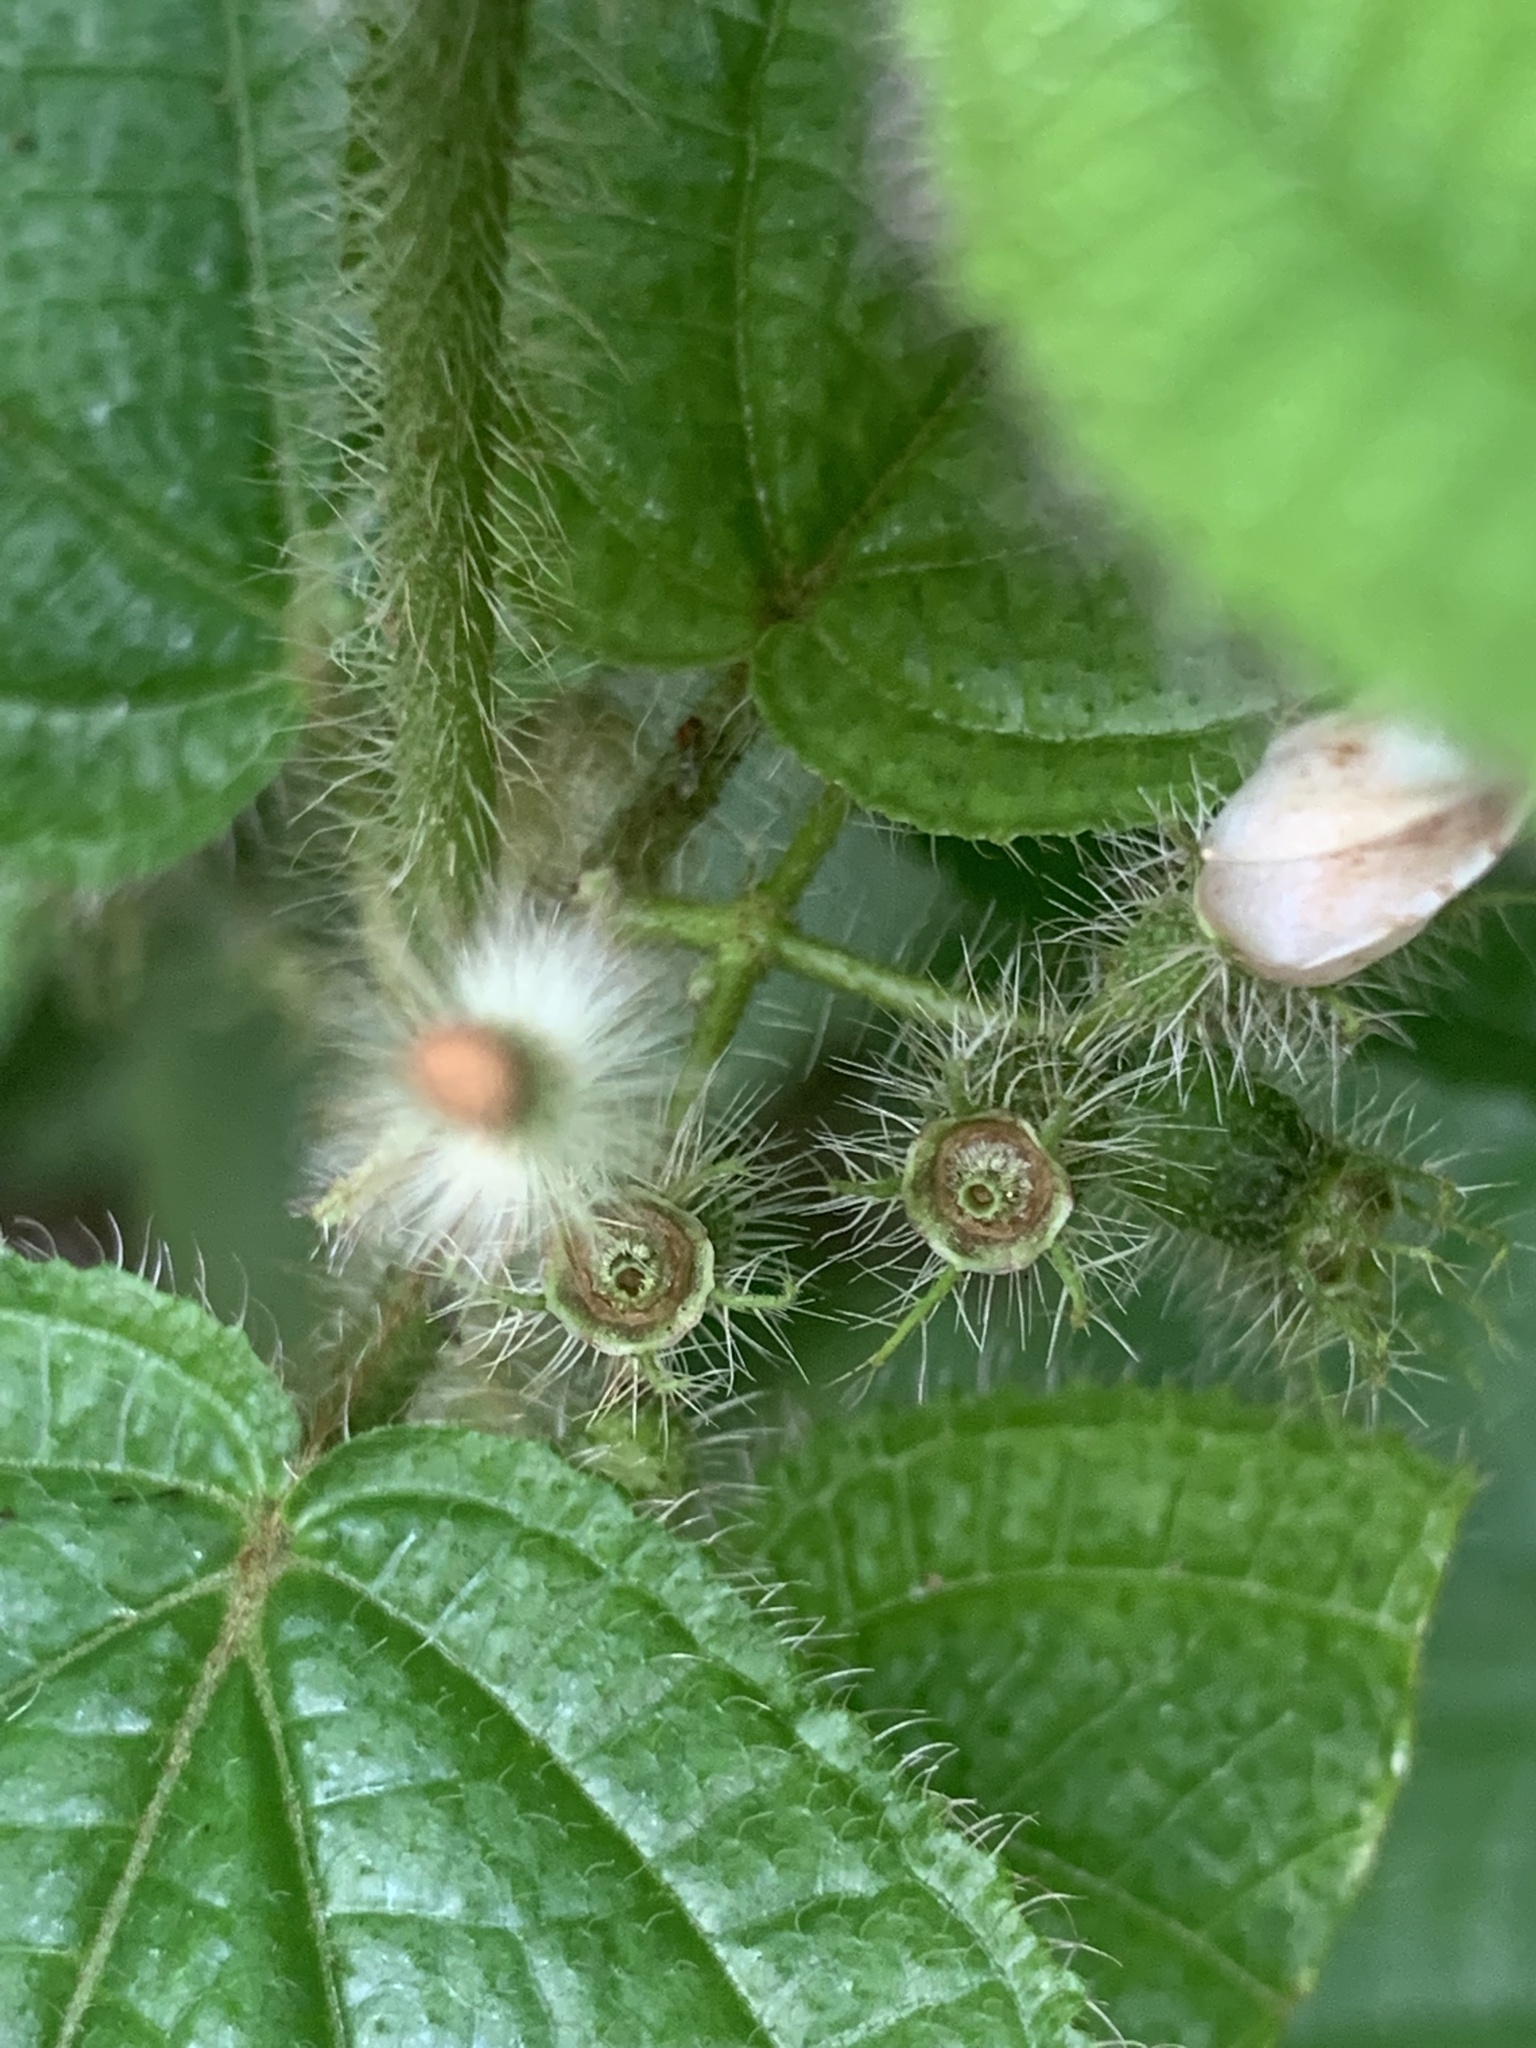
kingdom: Plantae
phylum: Tracheophyta
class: Magnoliopsida
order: Myrtales
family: Melastomataceae
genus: Miconia
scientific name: Miconia crenata
